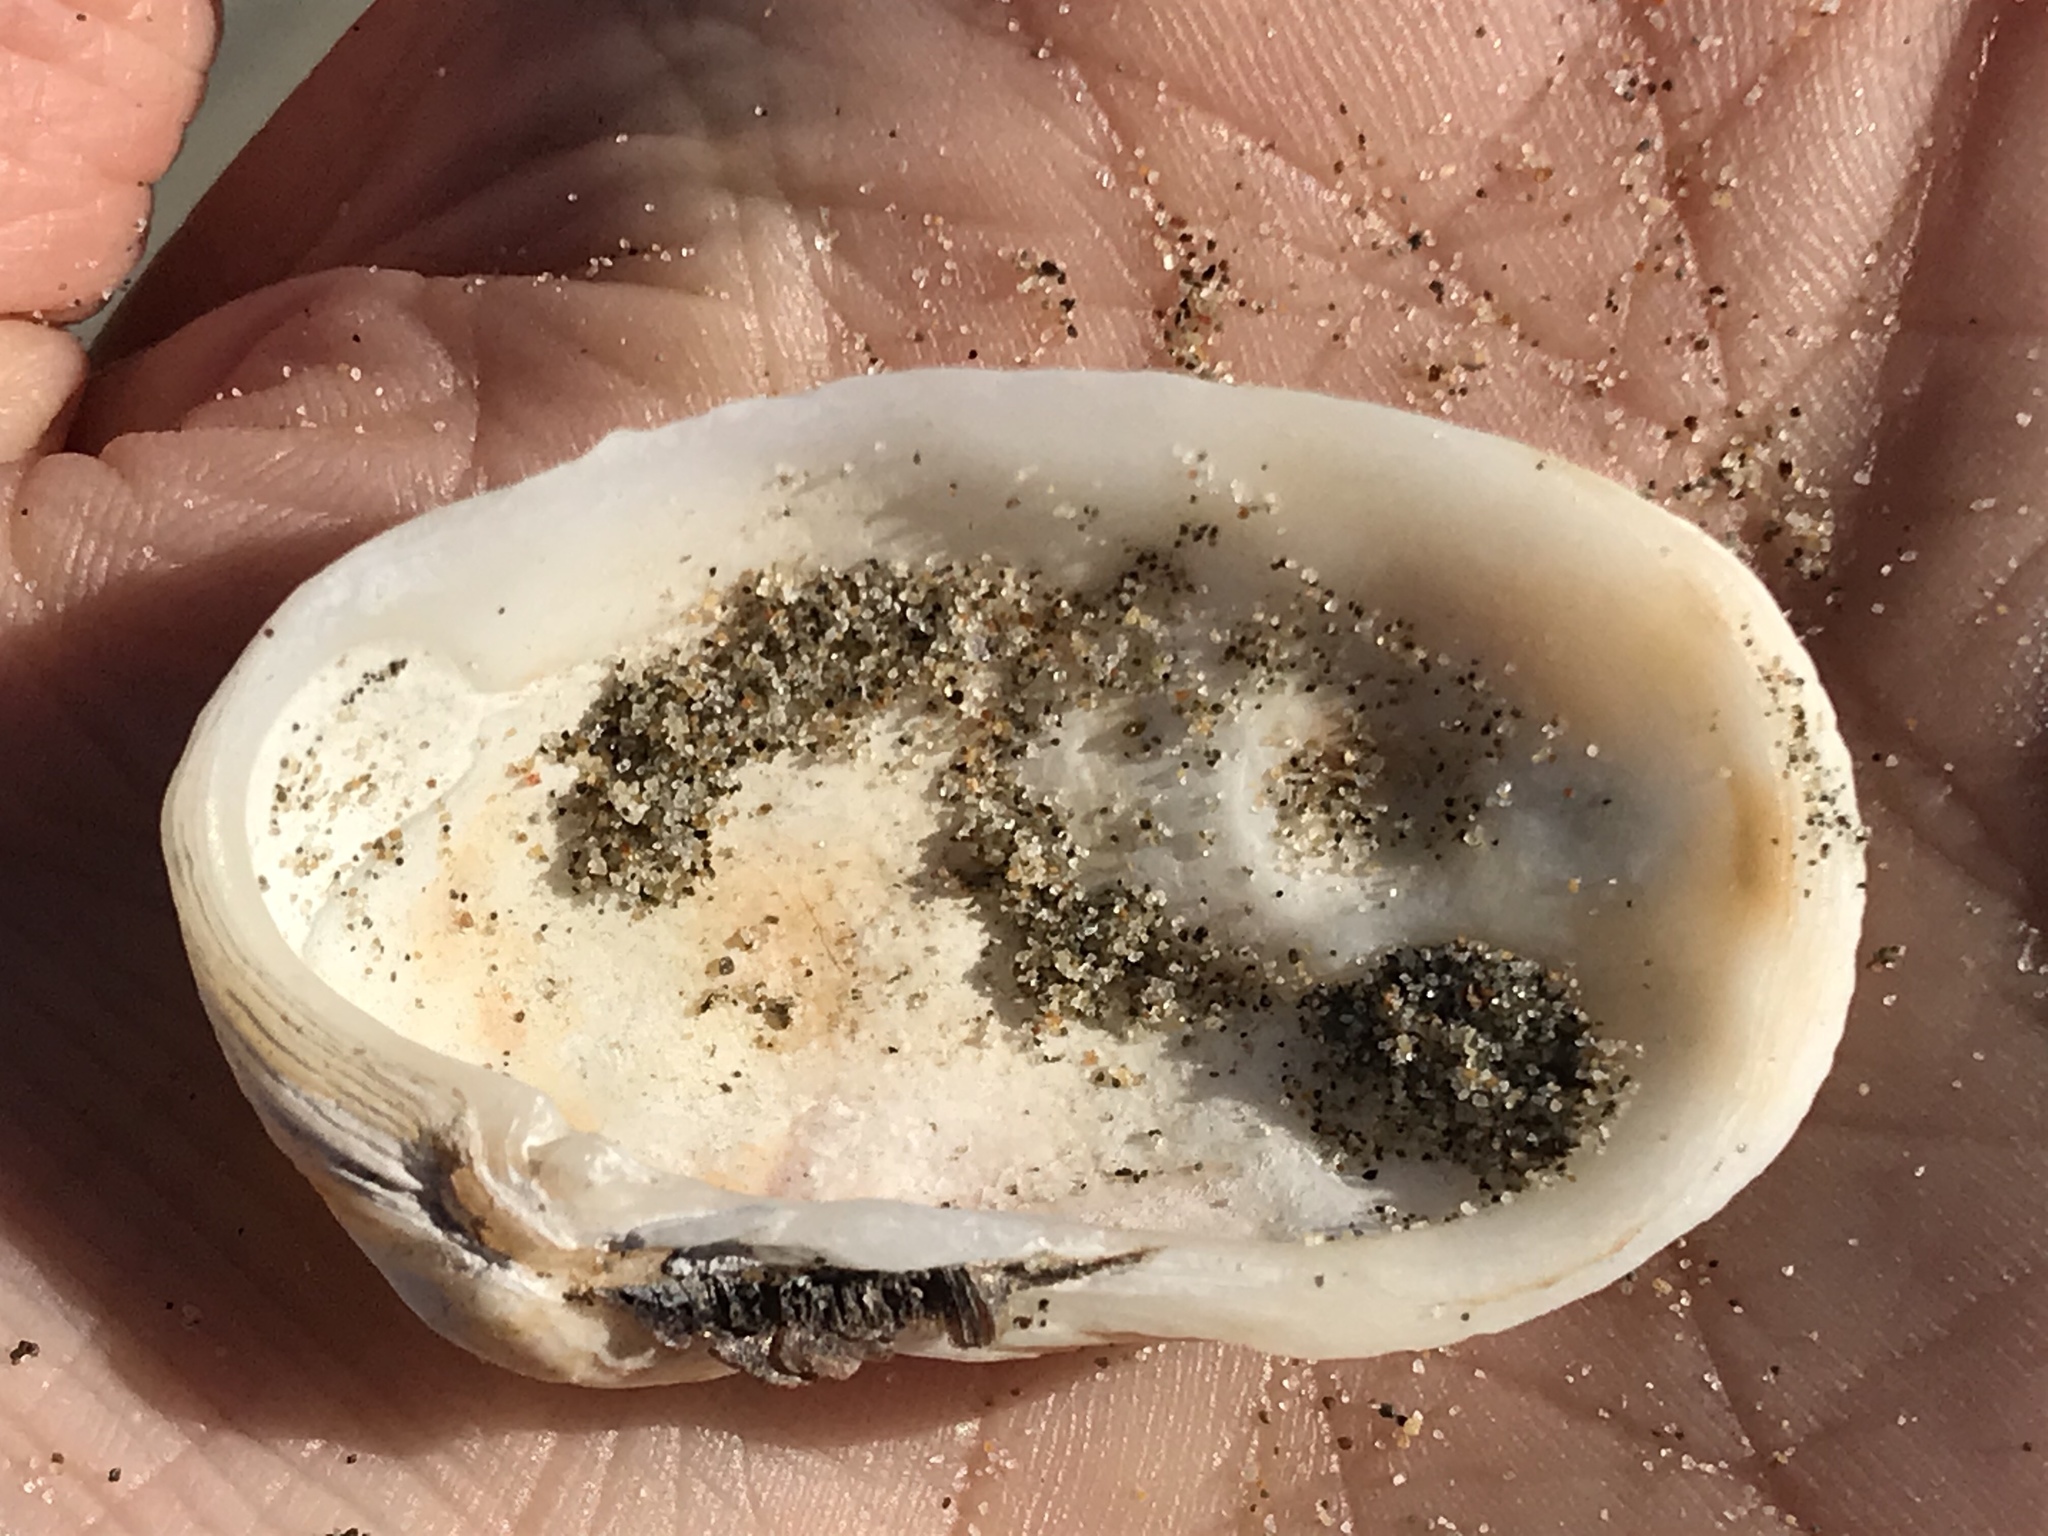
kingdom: Animalia
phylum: Mollusca
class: Bivalvia
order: Venerida
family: Veneridae
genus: Petricola
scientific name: Petricola carditoides
